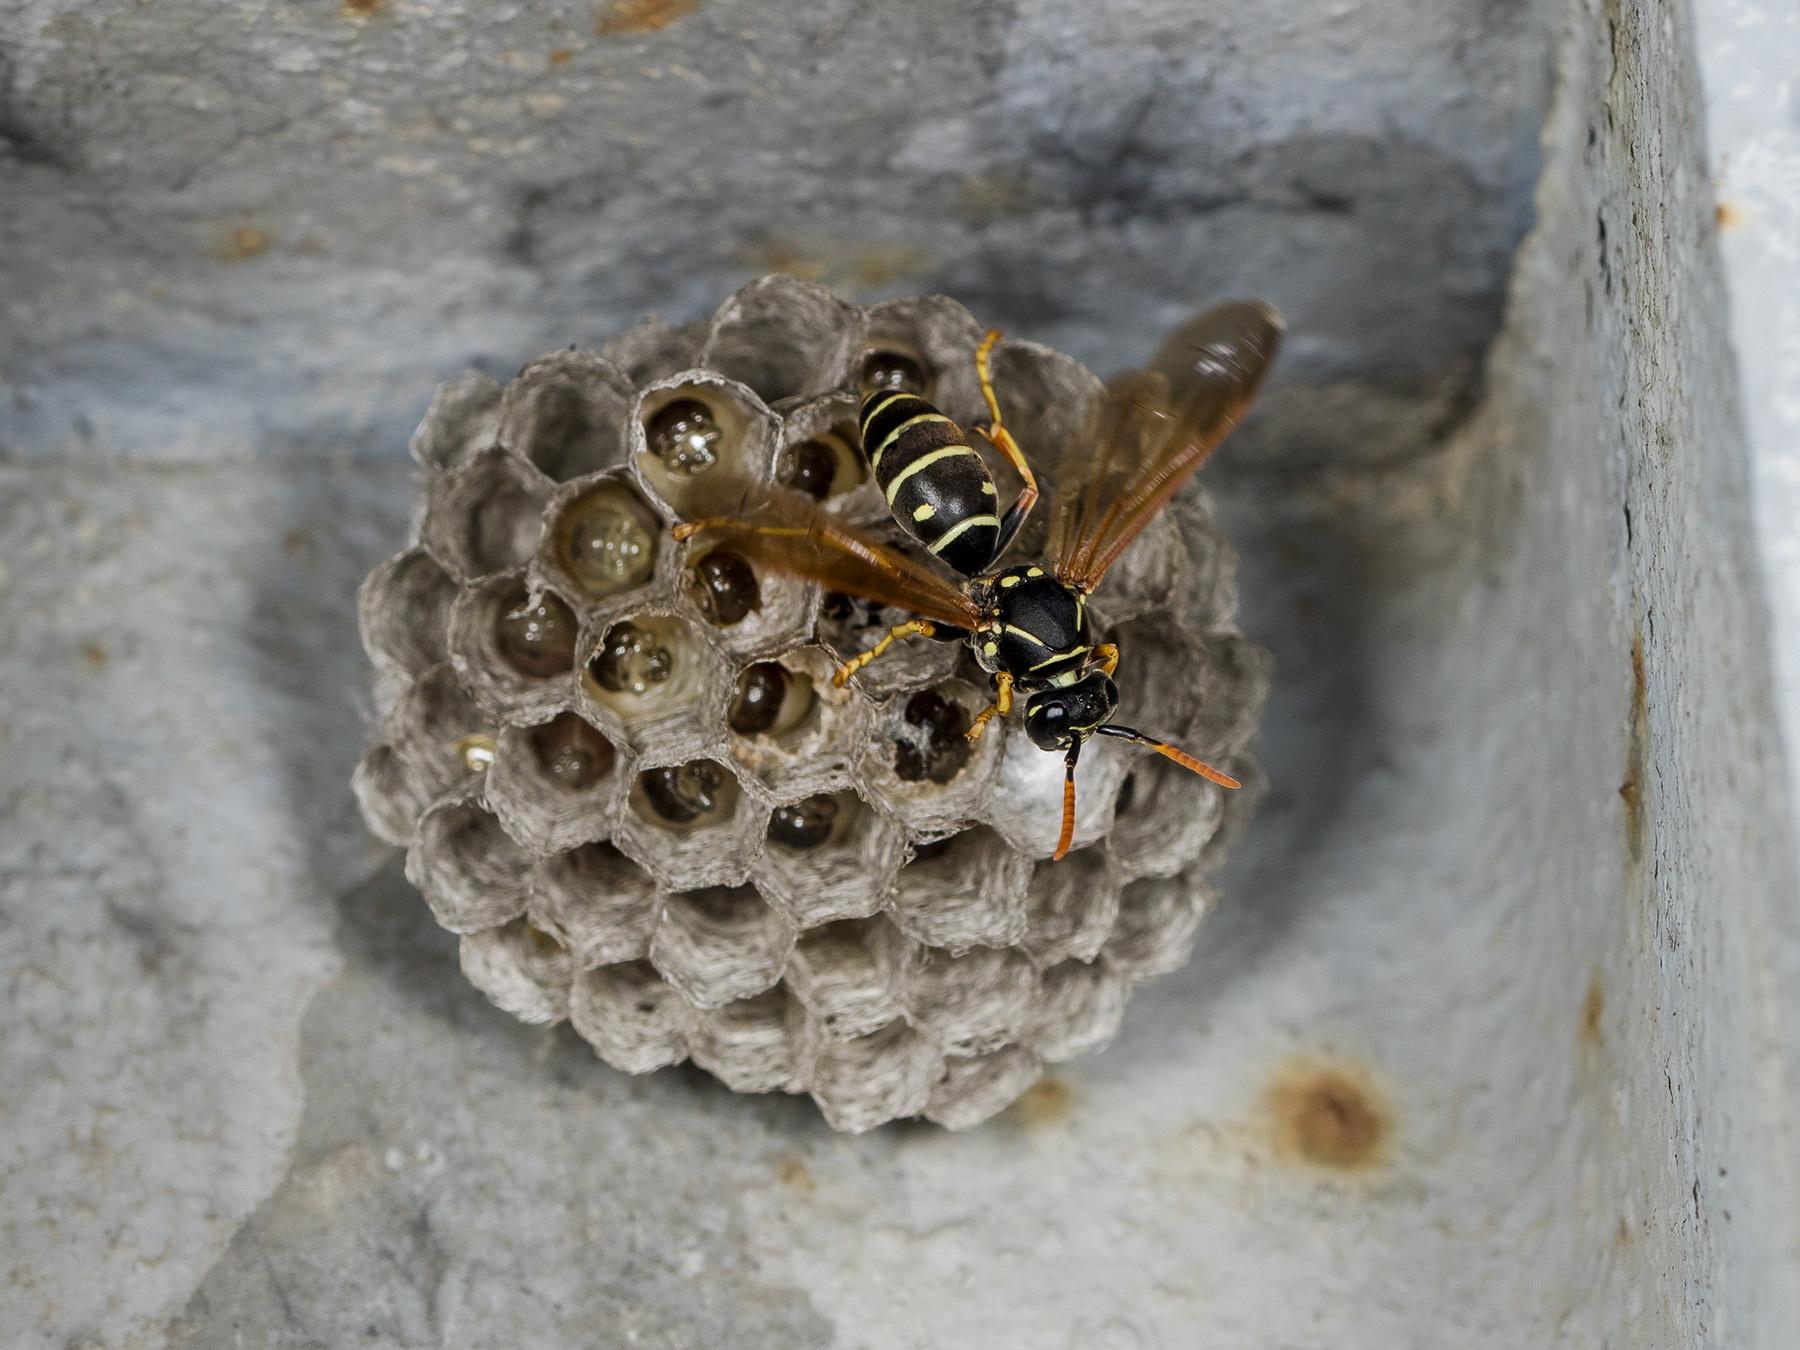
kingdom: Animalia
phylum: Arthropoda
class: Insecta
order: Hymenoptera
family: Eumenidae
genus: Polistes
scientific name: Polistes nimpha
